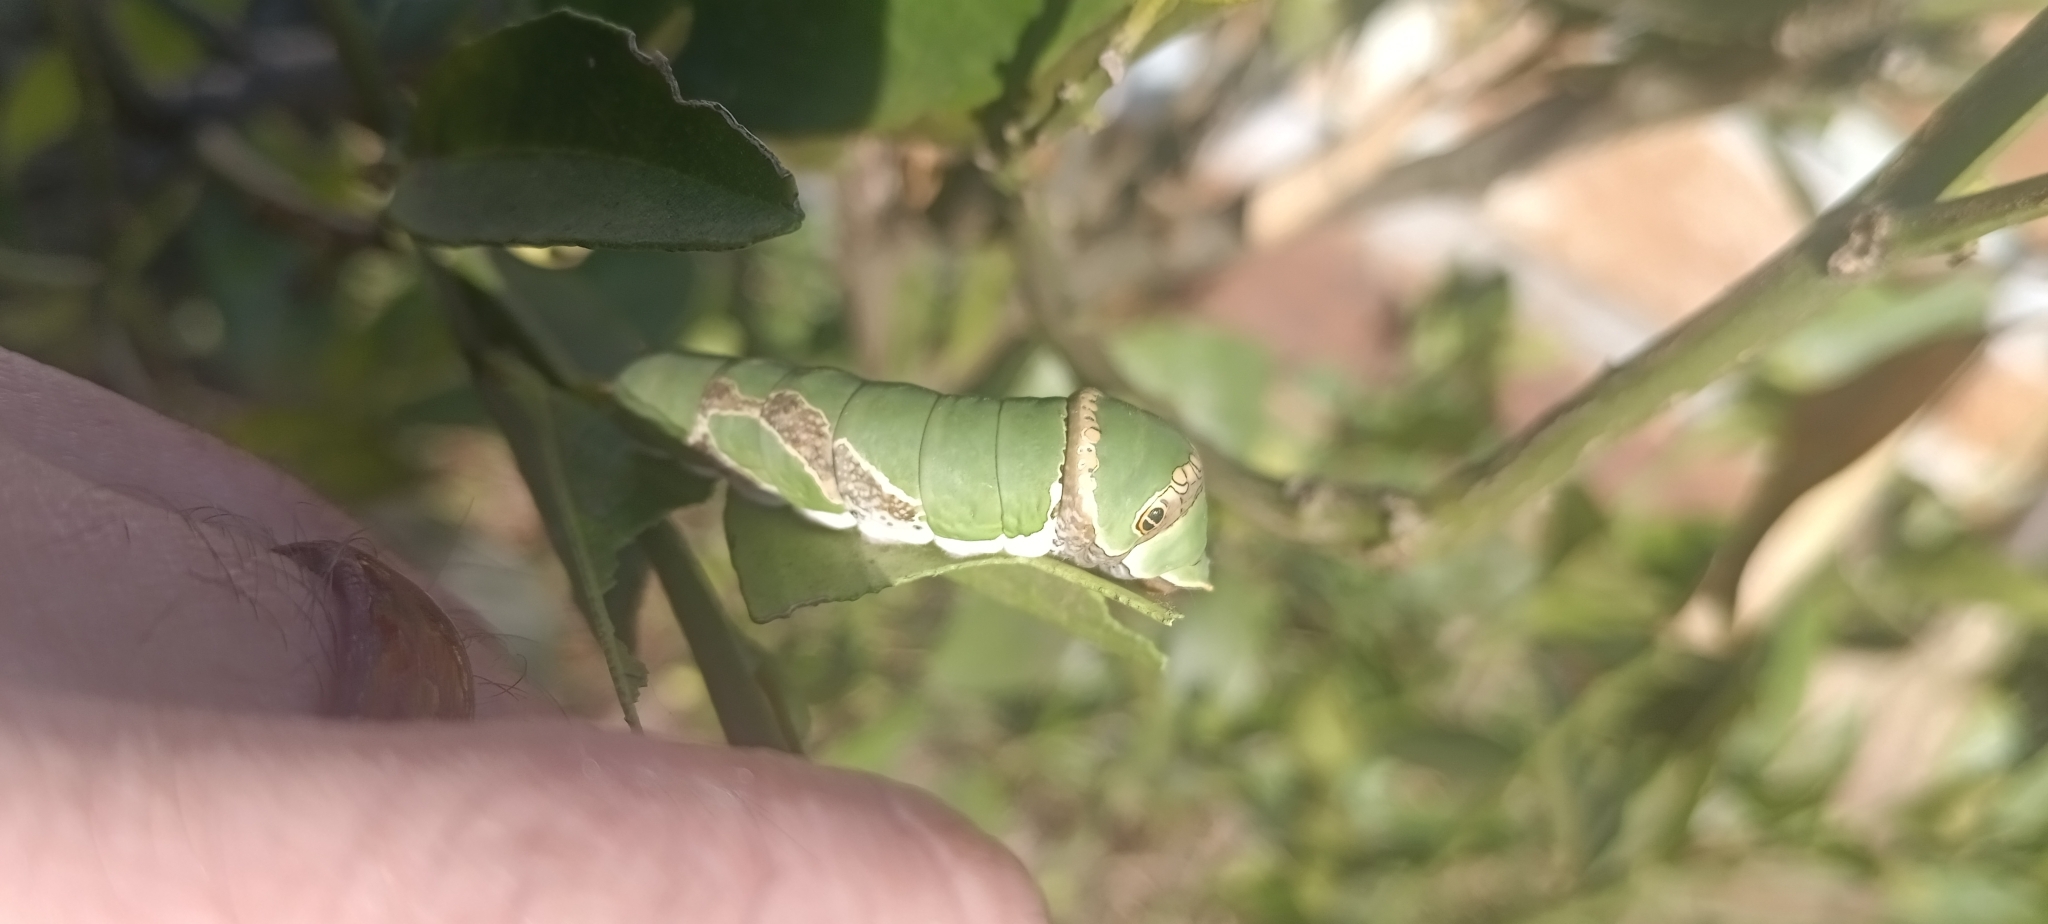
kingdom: Animalia
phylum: Arthropoda
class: Insecta
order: Lepidoptera
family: Papilionidae
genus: Papilio
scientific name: Papilio demodocus
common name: Christmas butterfly
